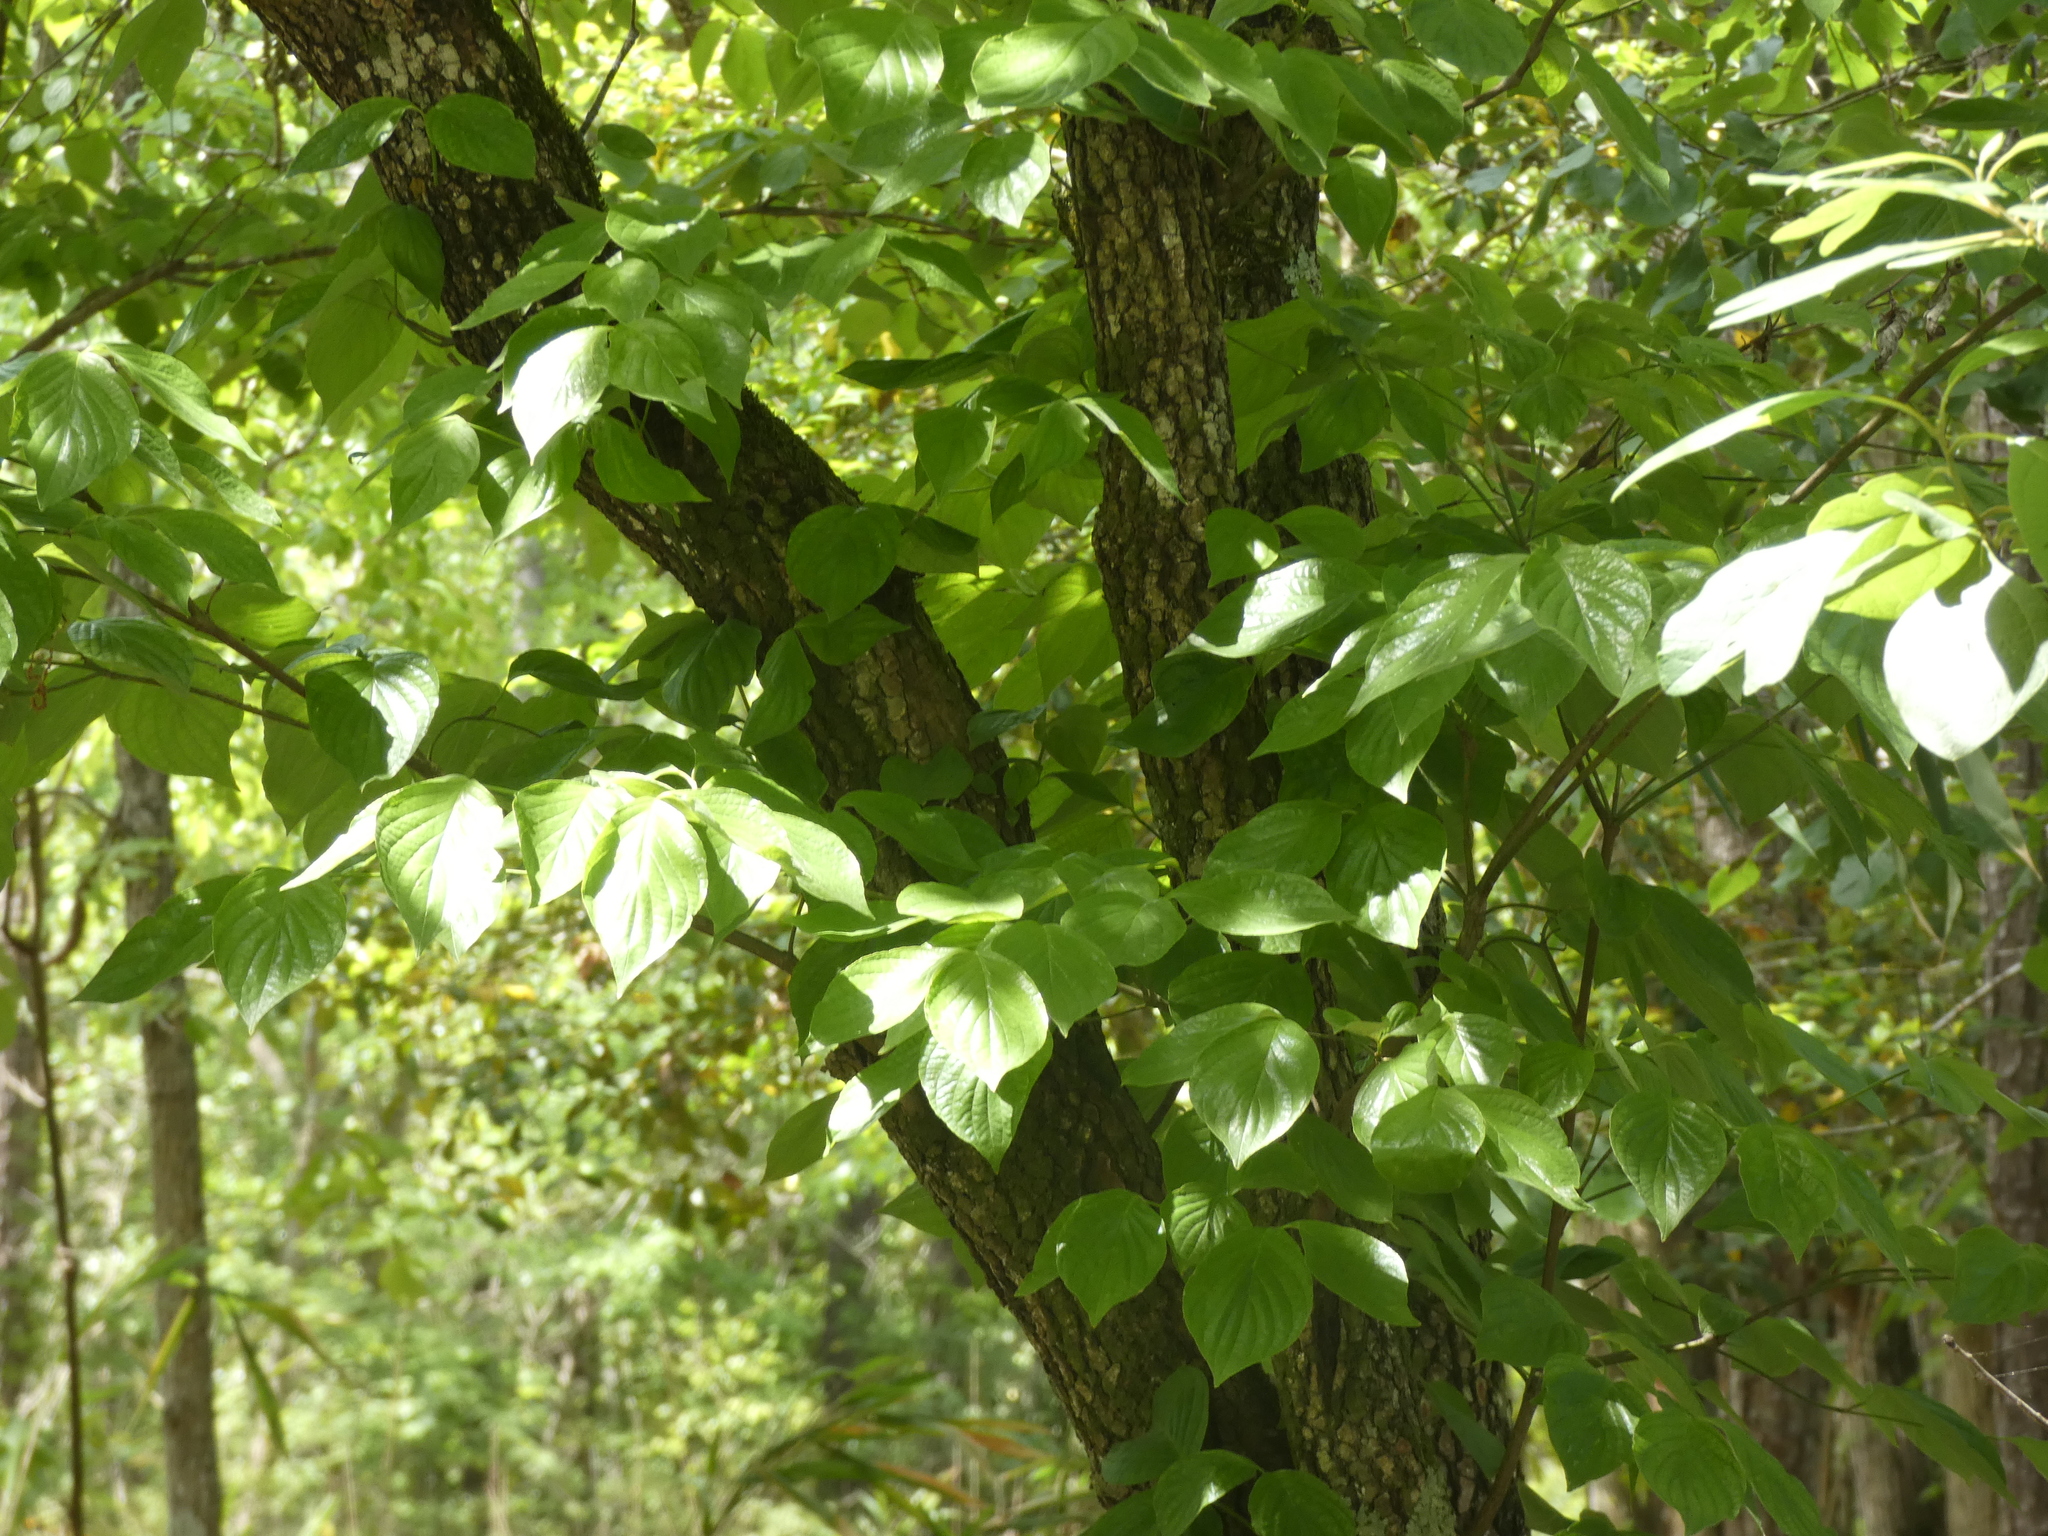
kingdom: Plantae
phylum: Tracheophyta
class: Magnoliopsida
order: Cornales
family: Cornaceae
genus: Cornus
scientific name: Cornus florida
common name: Flowering dogwood
